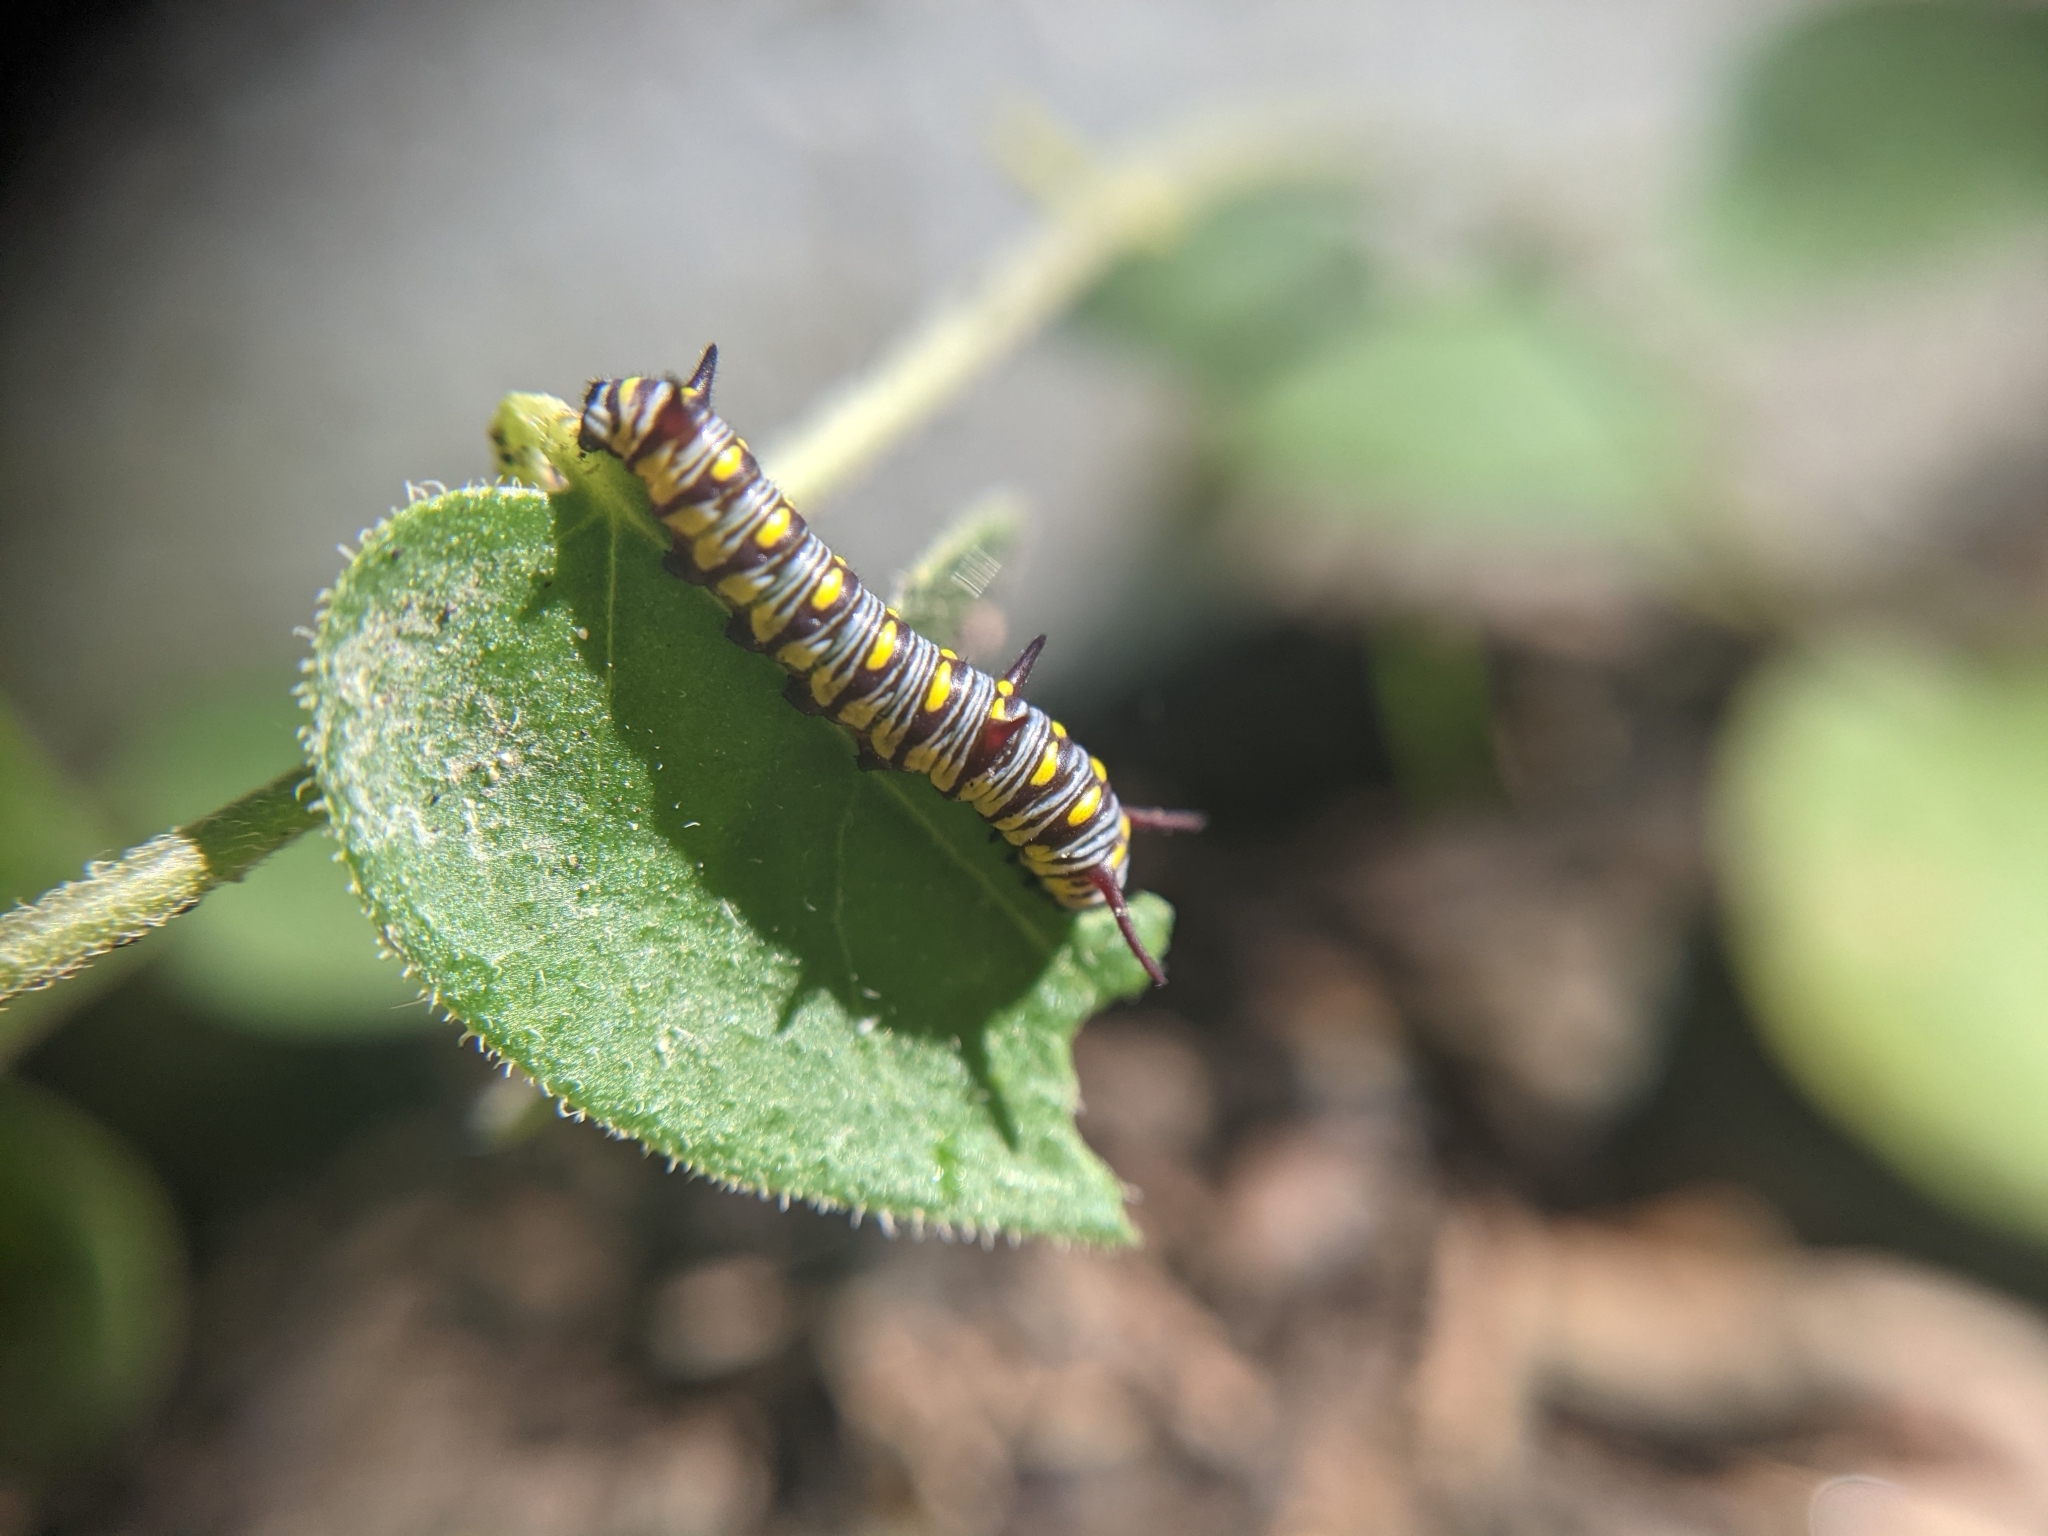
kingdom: Animalia
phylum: Arthropoda
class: Insecta
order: Lepidoptera
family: Nymphalidae
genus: Danaus
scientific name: Danaus gilippus
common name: Queen
